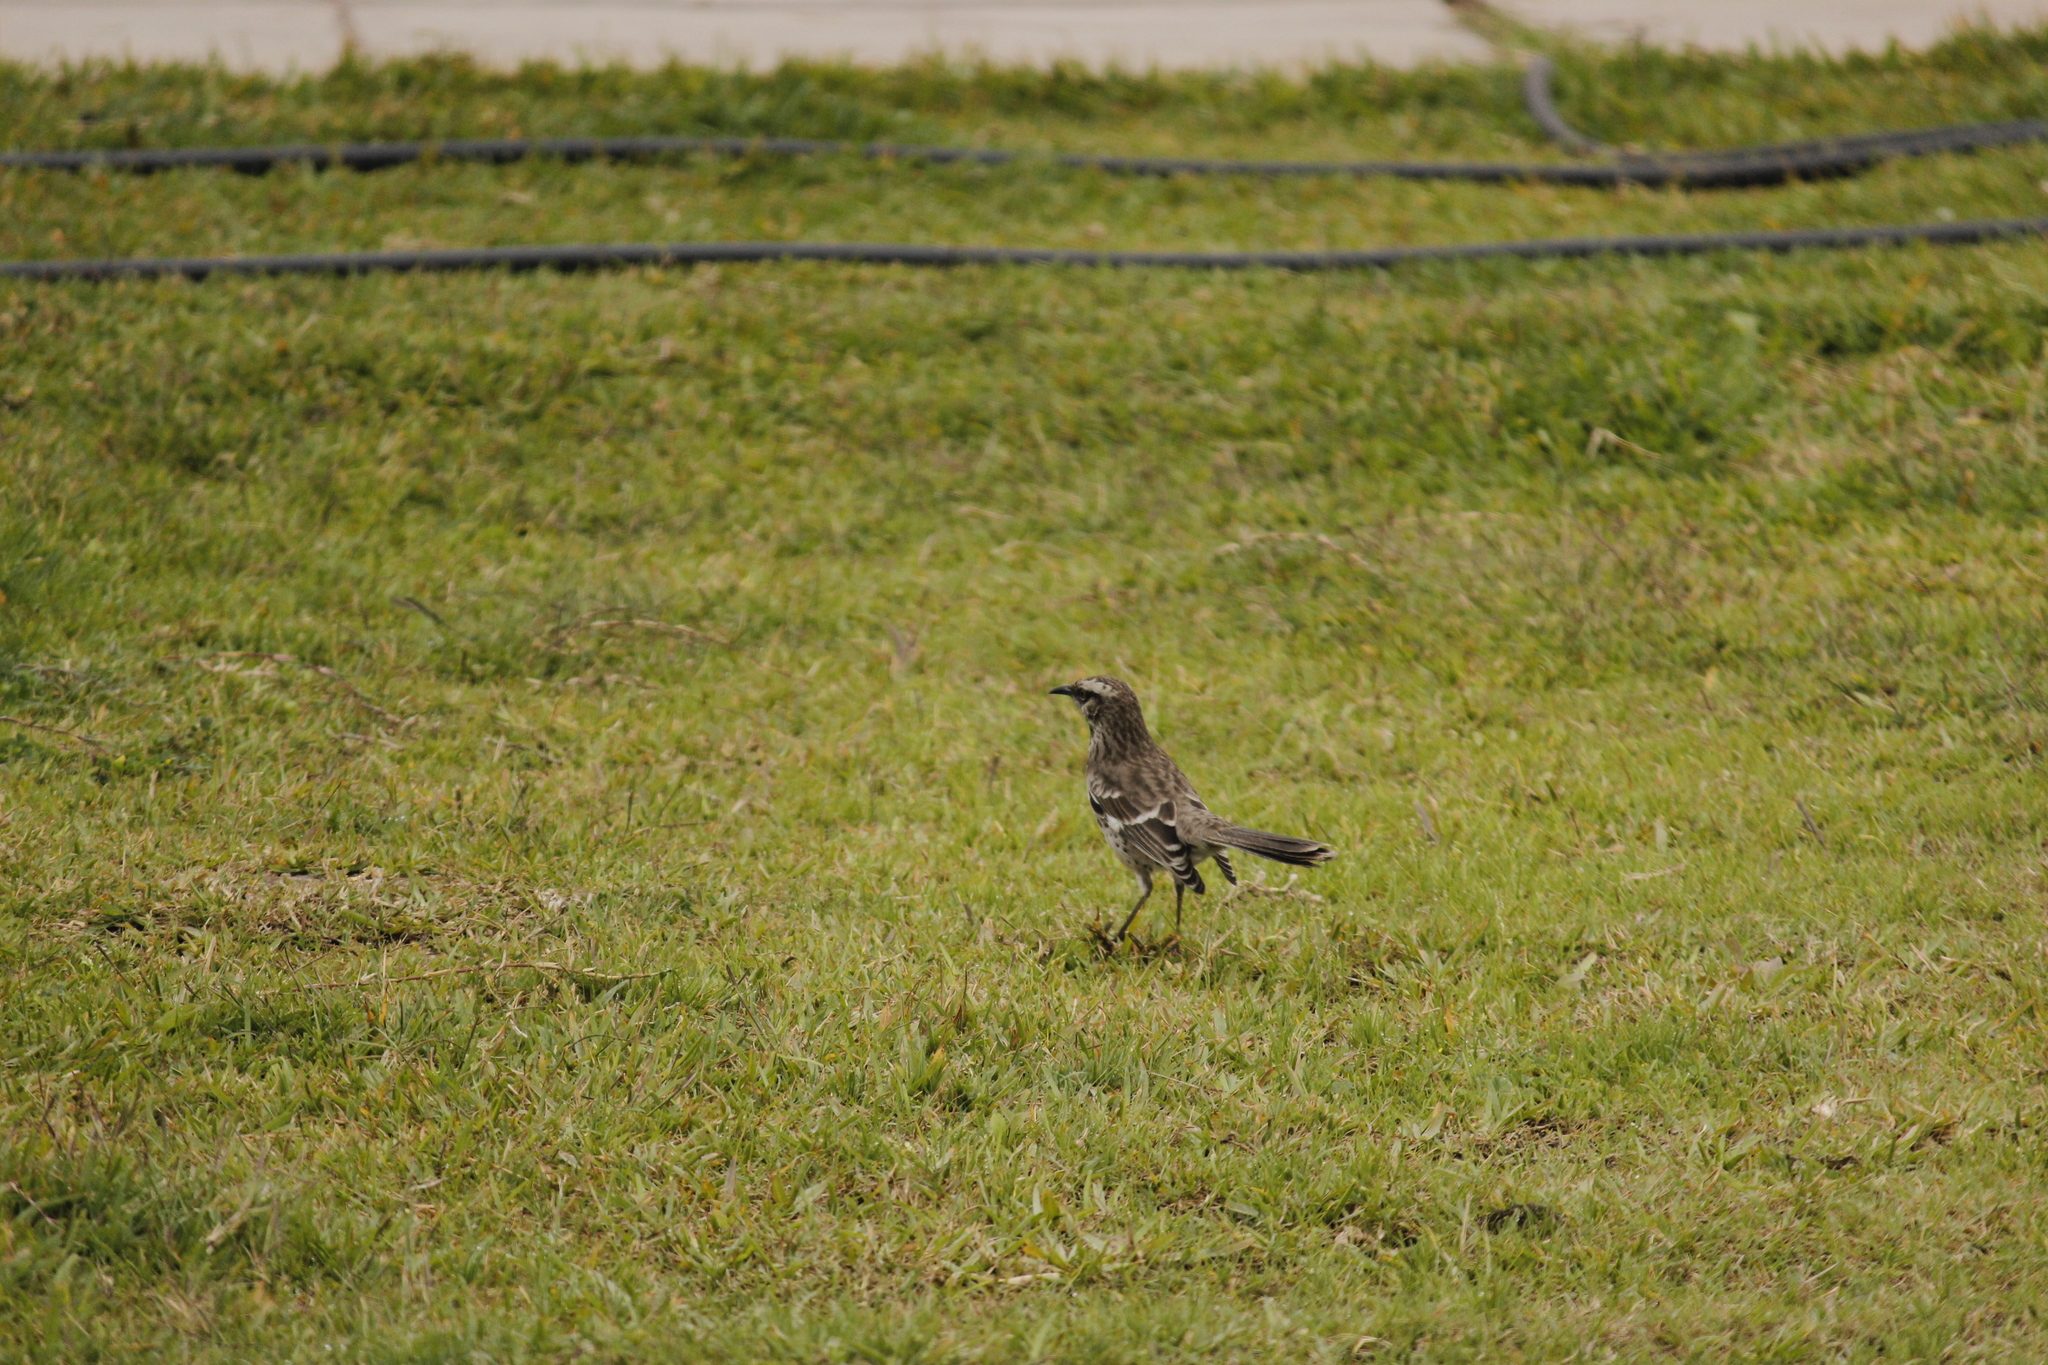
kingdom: Animalia
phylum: Chordata
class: Aves
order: Passeriformes
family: Mimidae
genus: Mimus
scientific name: Mimus longicaudatus
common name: Long-tailed mockingbird
